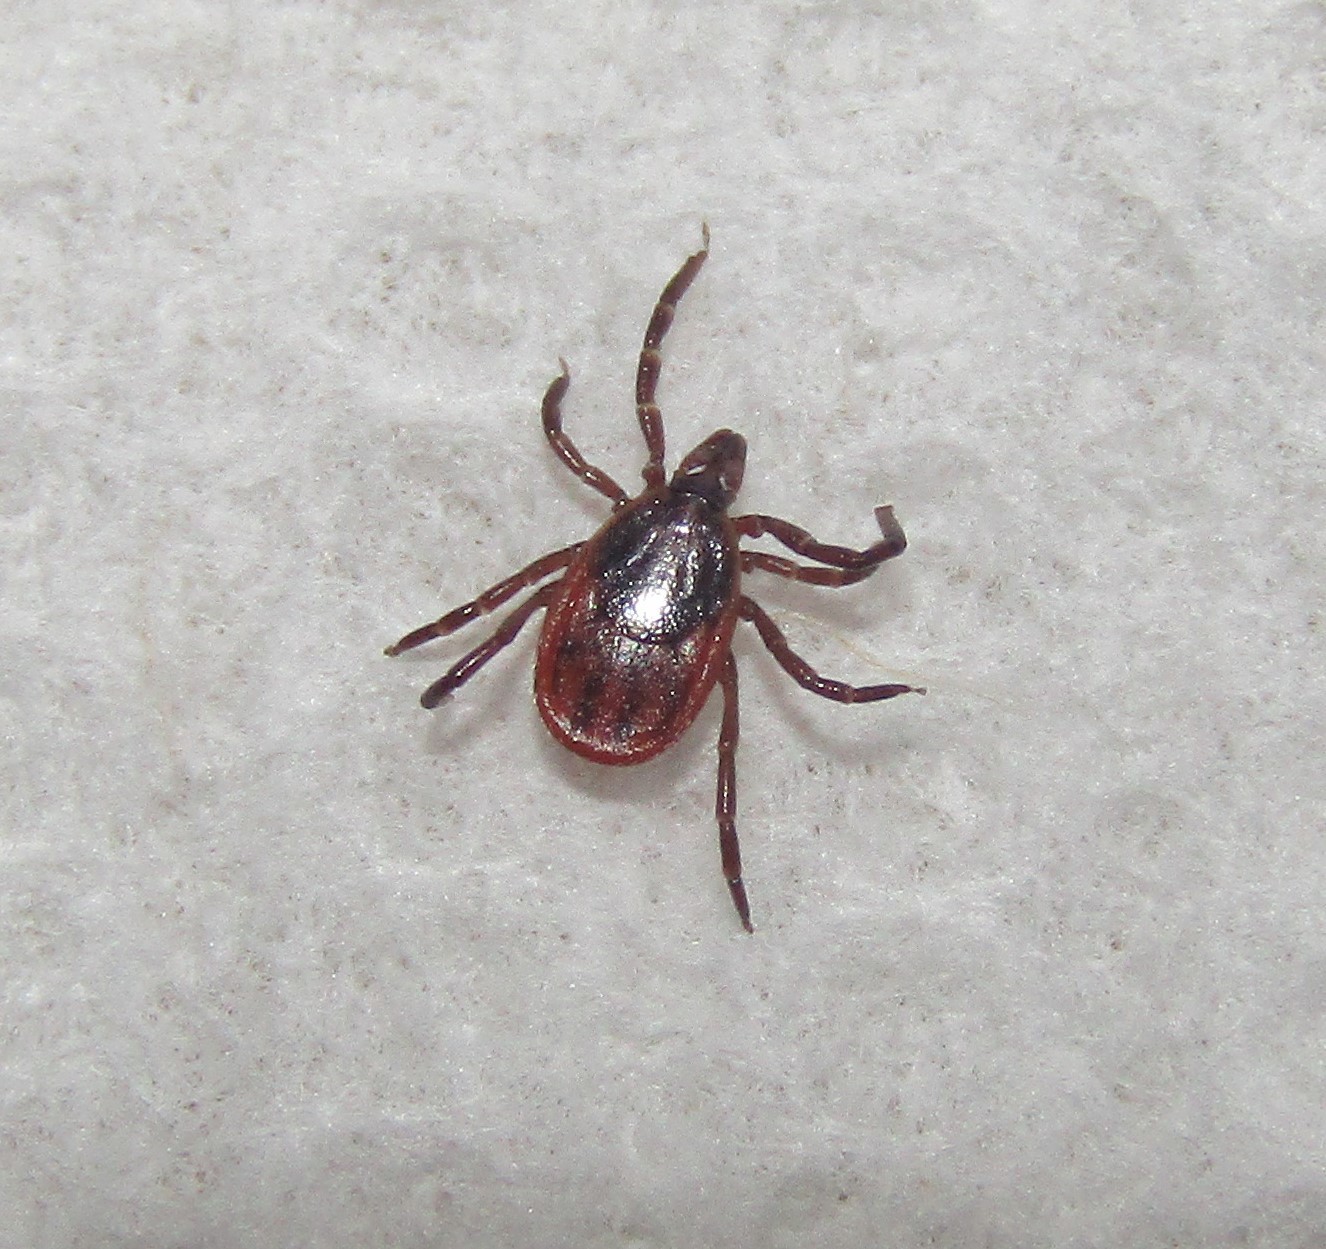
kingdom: Animalia
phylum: Arthropoda
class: Arachnida
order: Ixodida
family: Ixodidae
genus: Ixodes
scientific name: Ixodes scapularis
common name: Black legged tick
